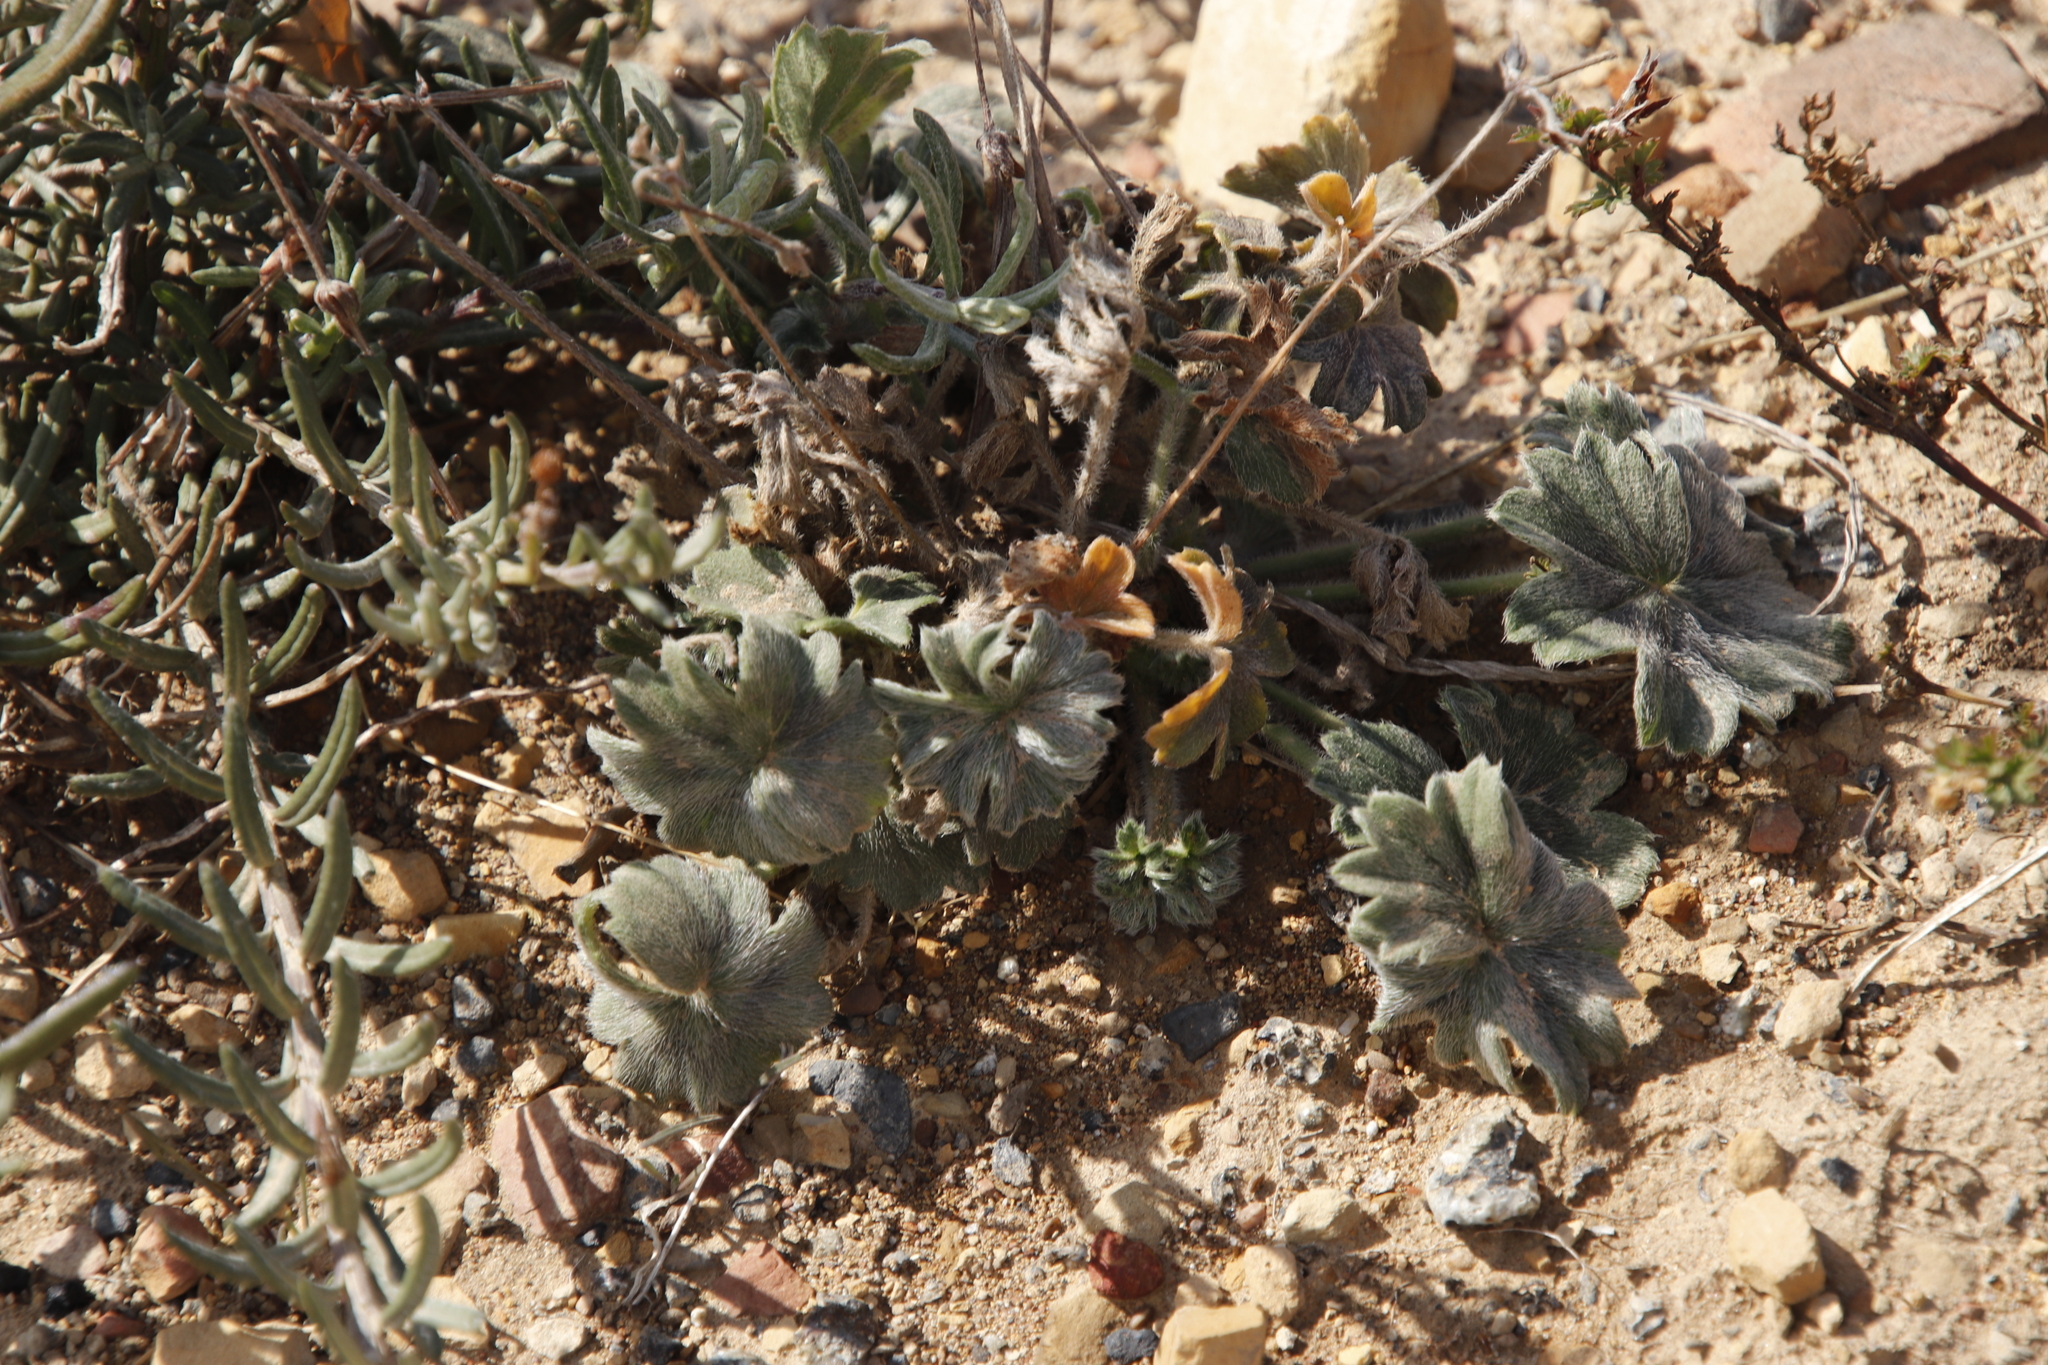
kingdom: Plantae
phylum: Tracheophyta
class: Magnoliopsida
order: Geraniales
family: Geraniaceae
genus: Pelargonium
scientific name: Pelargonium alchemilloides
